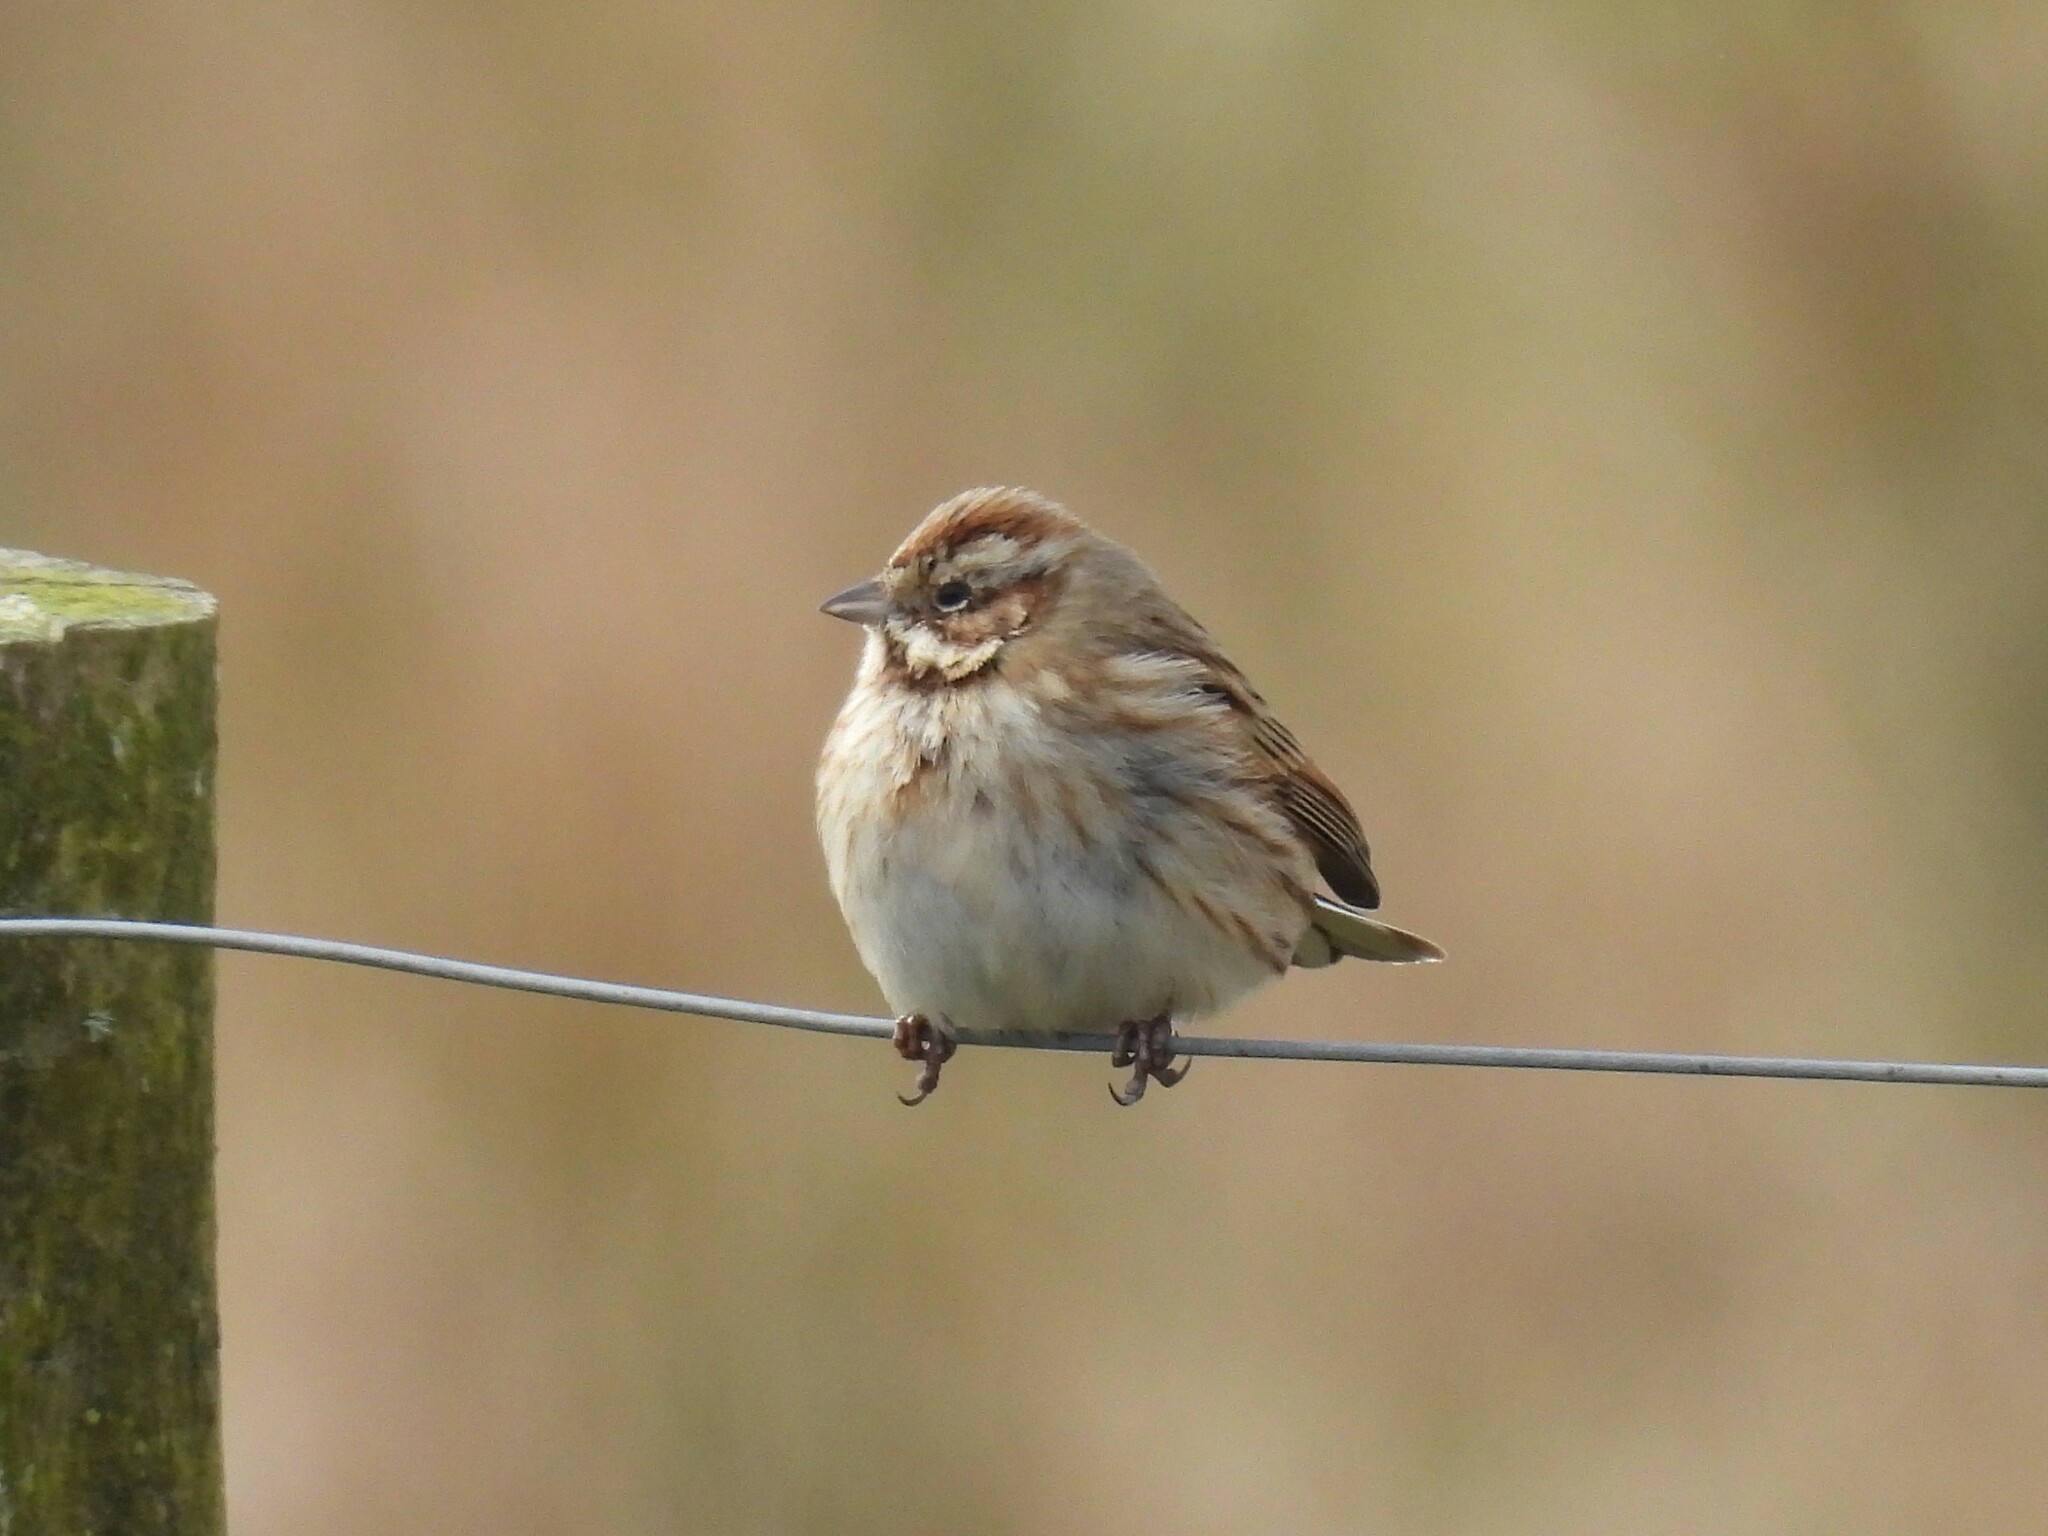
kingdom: Animalia
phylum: Chordata
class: Aves
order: Passeriformes
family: Emberizidae
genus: Emberiza
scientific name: Emberiza schoeniclus
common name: Reed bunting
